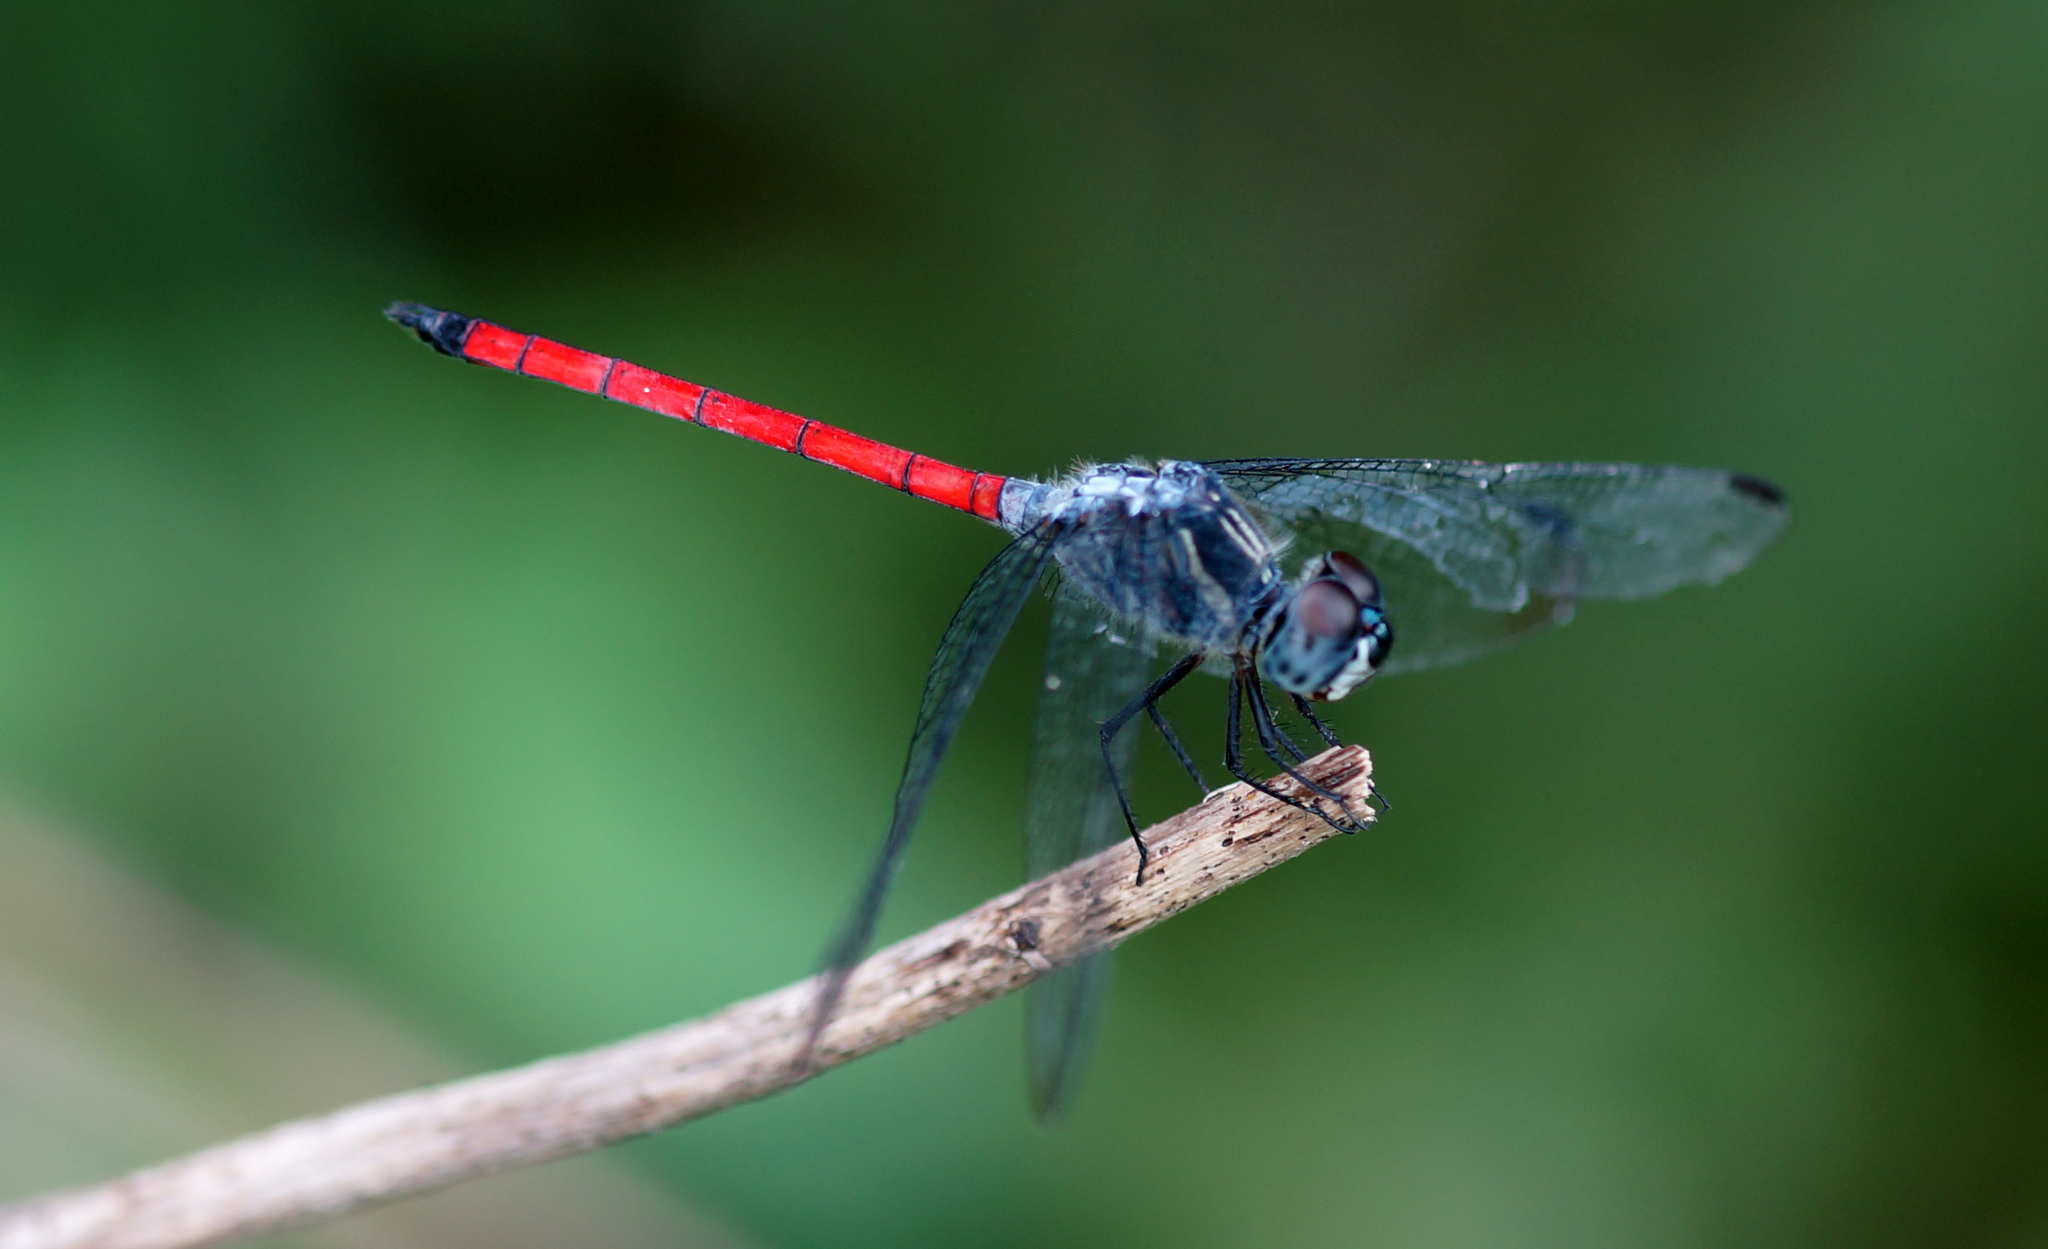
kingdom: Animalia
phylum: Arthropoda
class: Insecta
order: Odonata
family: Libellulidae
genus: Lathrecista
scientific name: Lathrecista asiatica
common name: Scarlet grenadier
